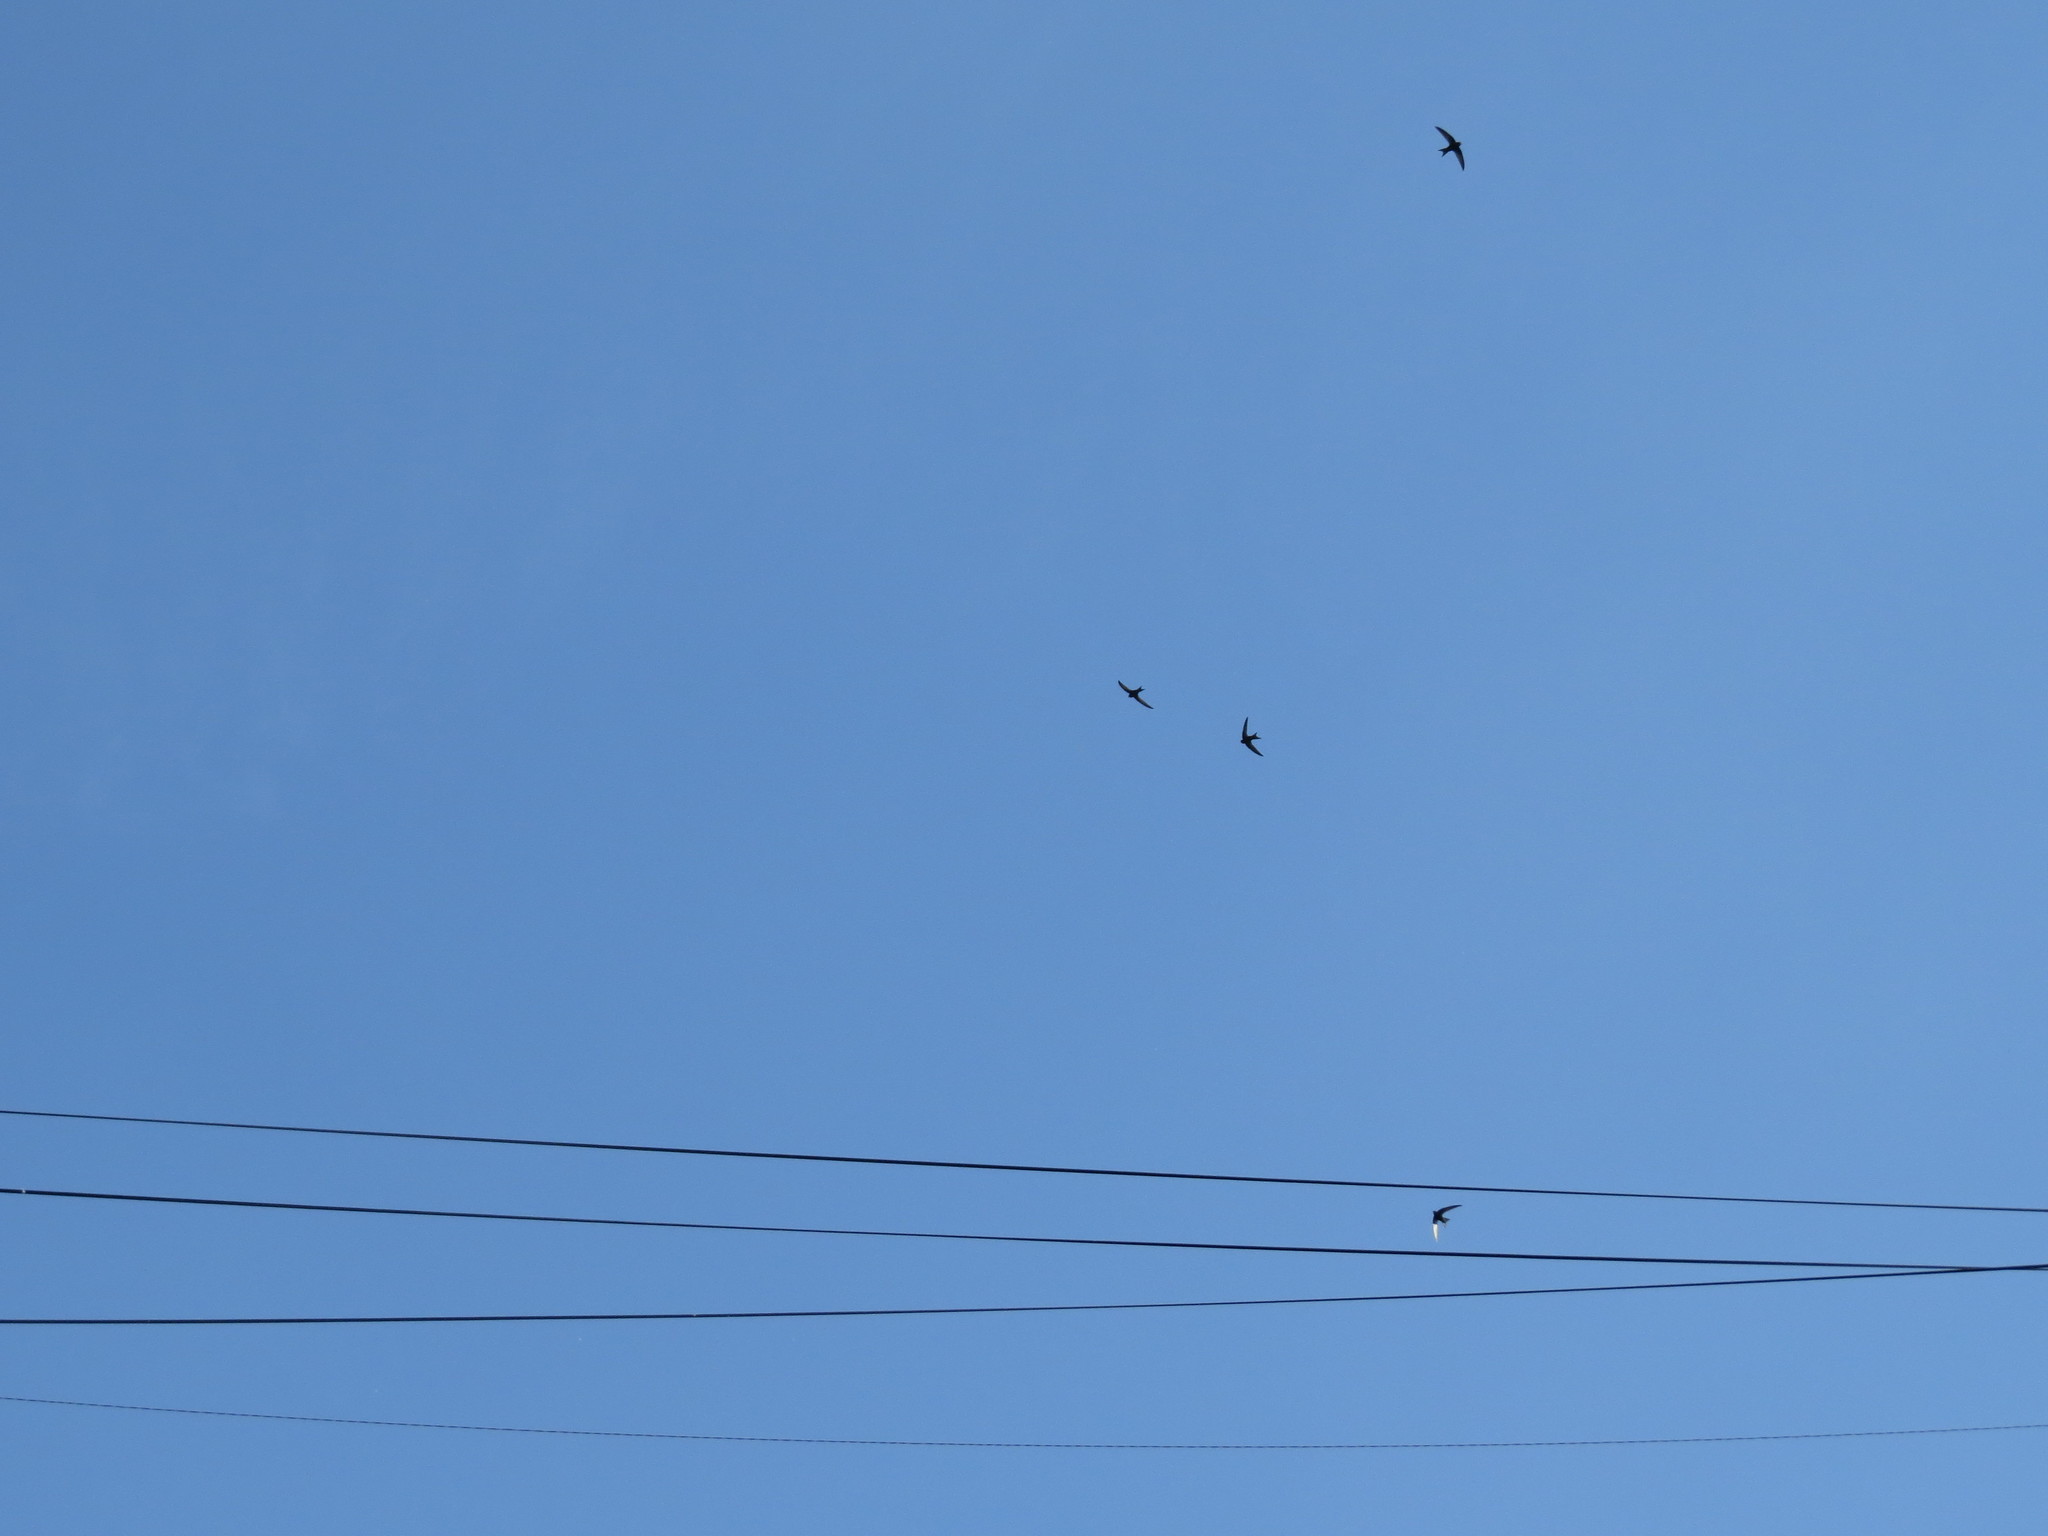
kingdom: Animalia
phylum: Chordata
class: Aves
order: Apodiformes
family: Apodidae
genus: Apus
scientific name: Apus apus
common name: Common swift
